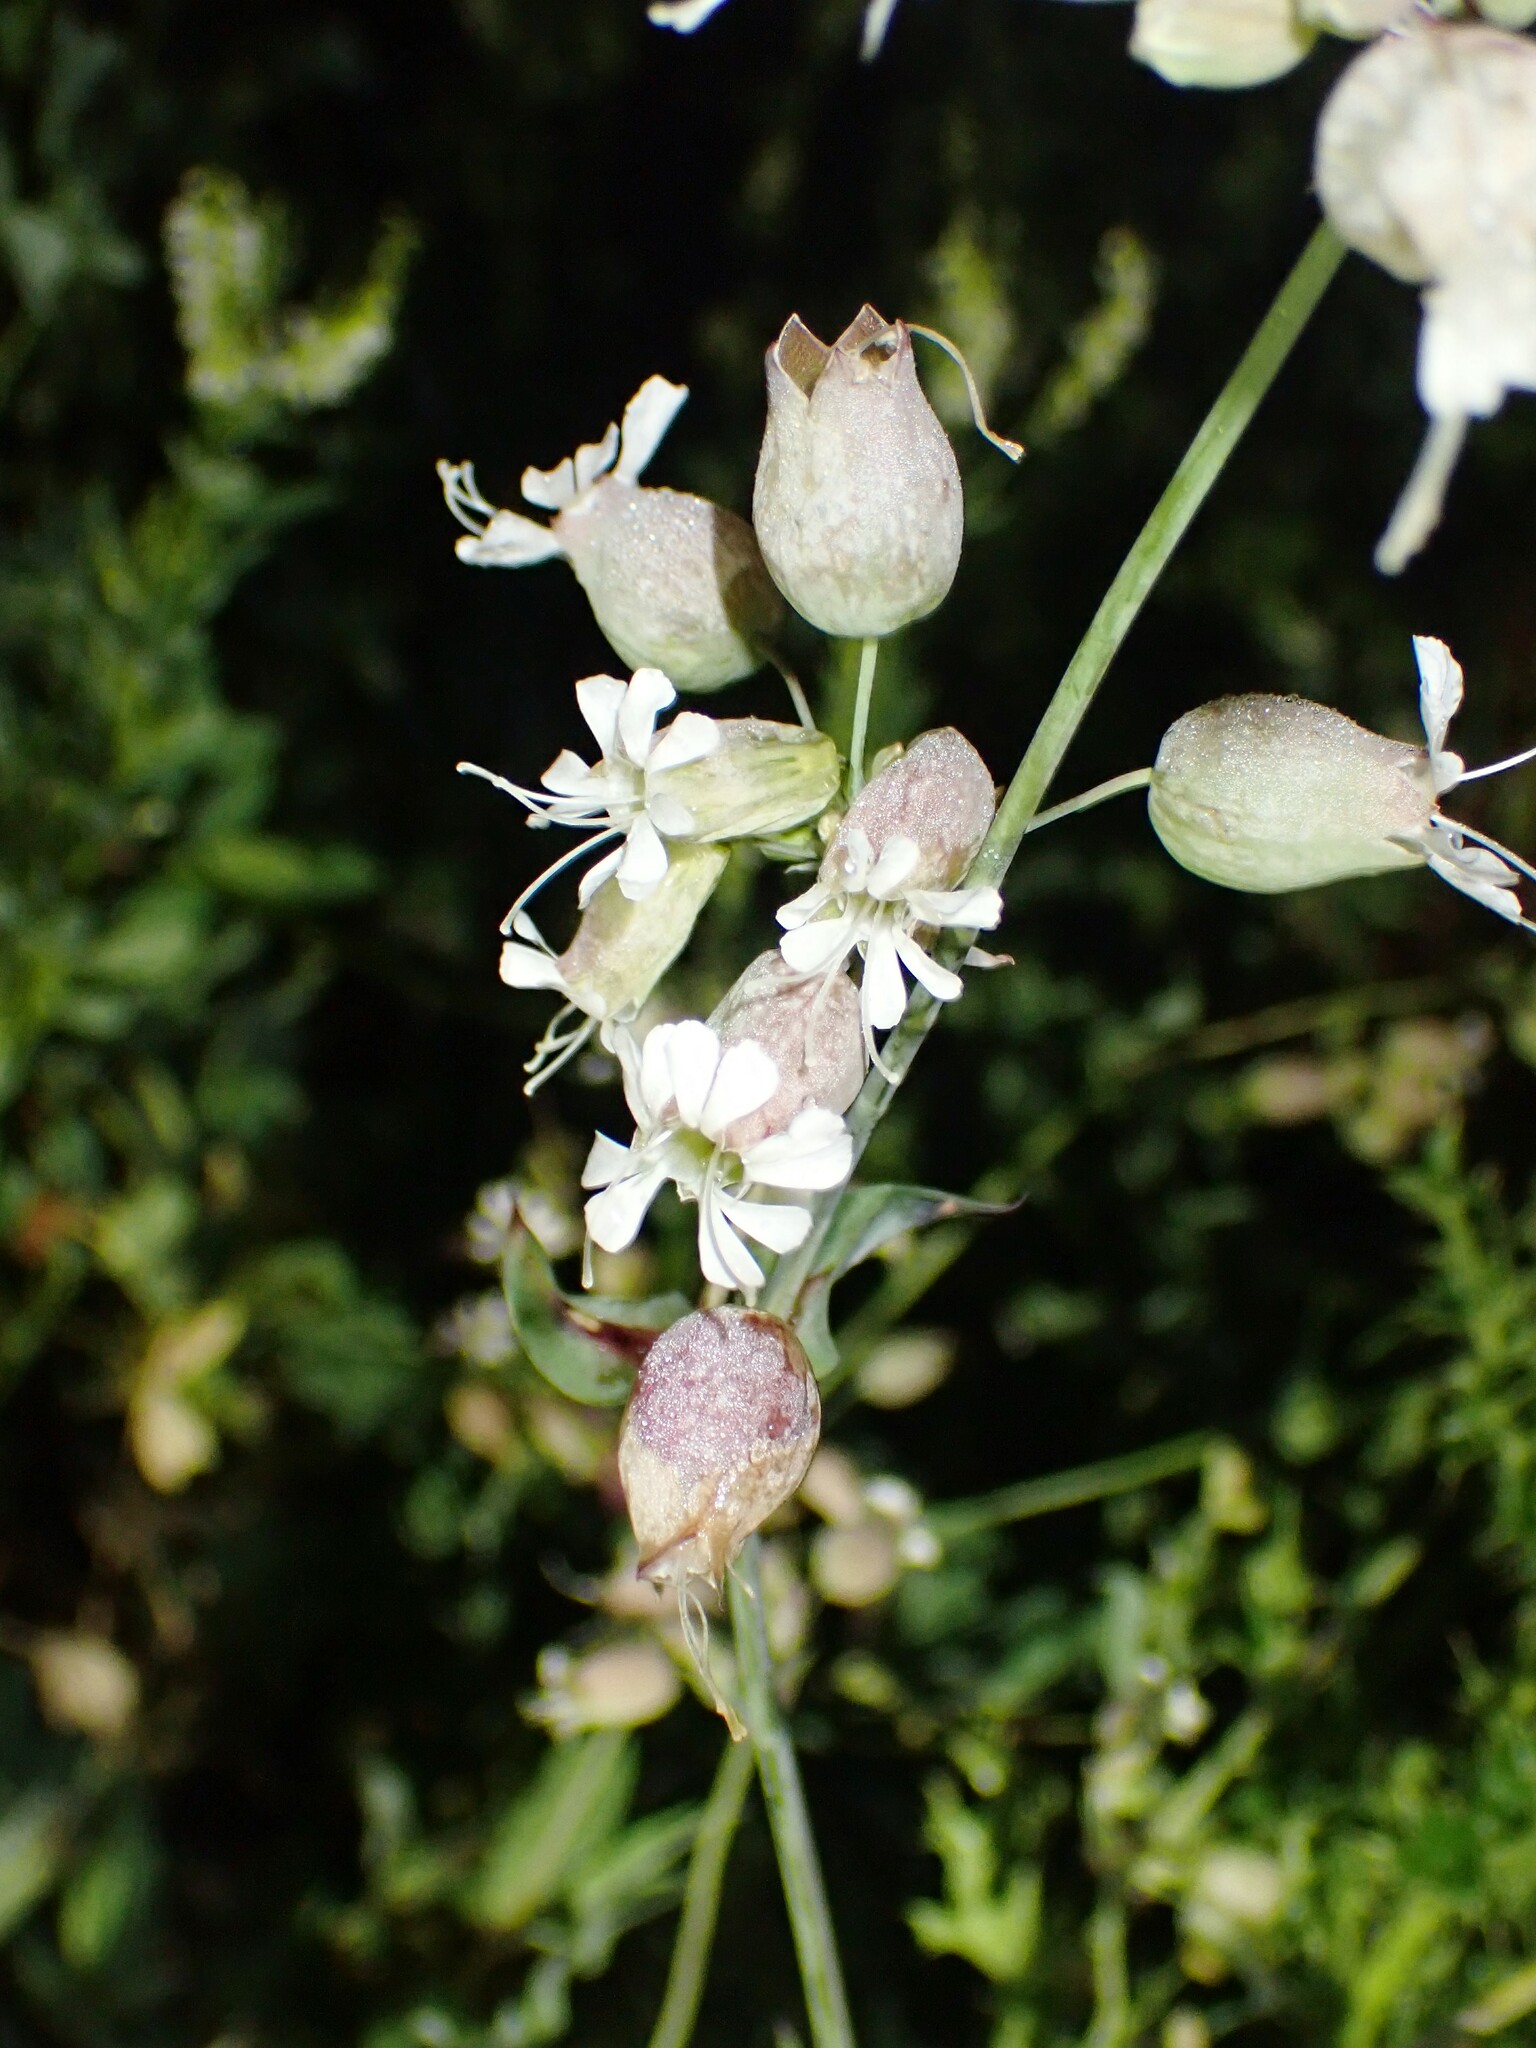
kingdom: Plantae
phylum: Tracheophyta
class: Magnoliopsida
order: Caryophyllales
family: Caryophyllaceae
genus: Silene
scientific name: Silene vulgaris
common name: Bladder campion
